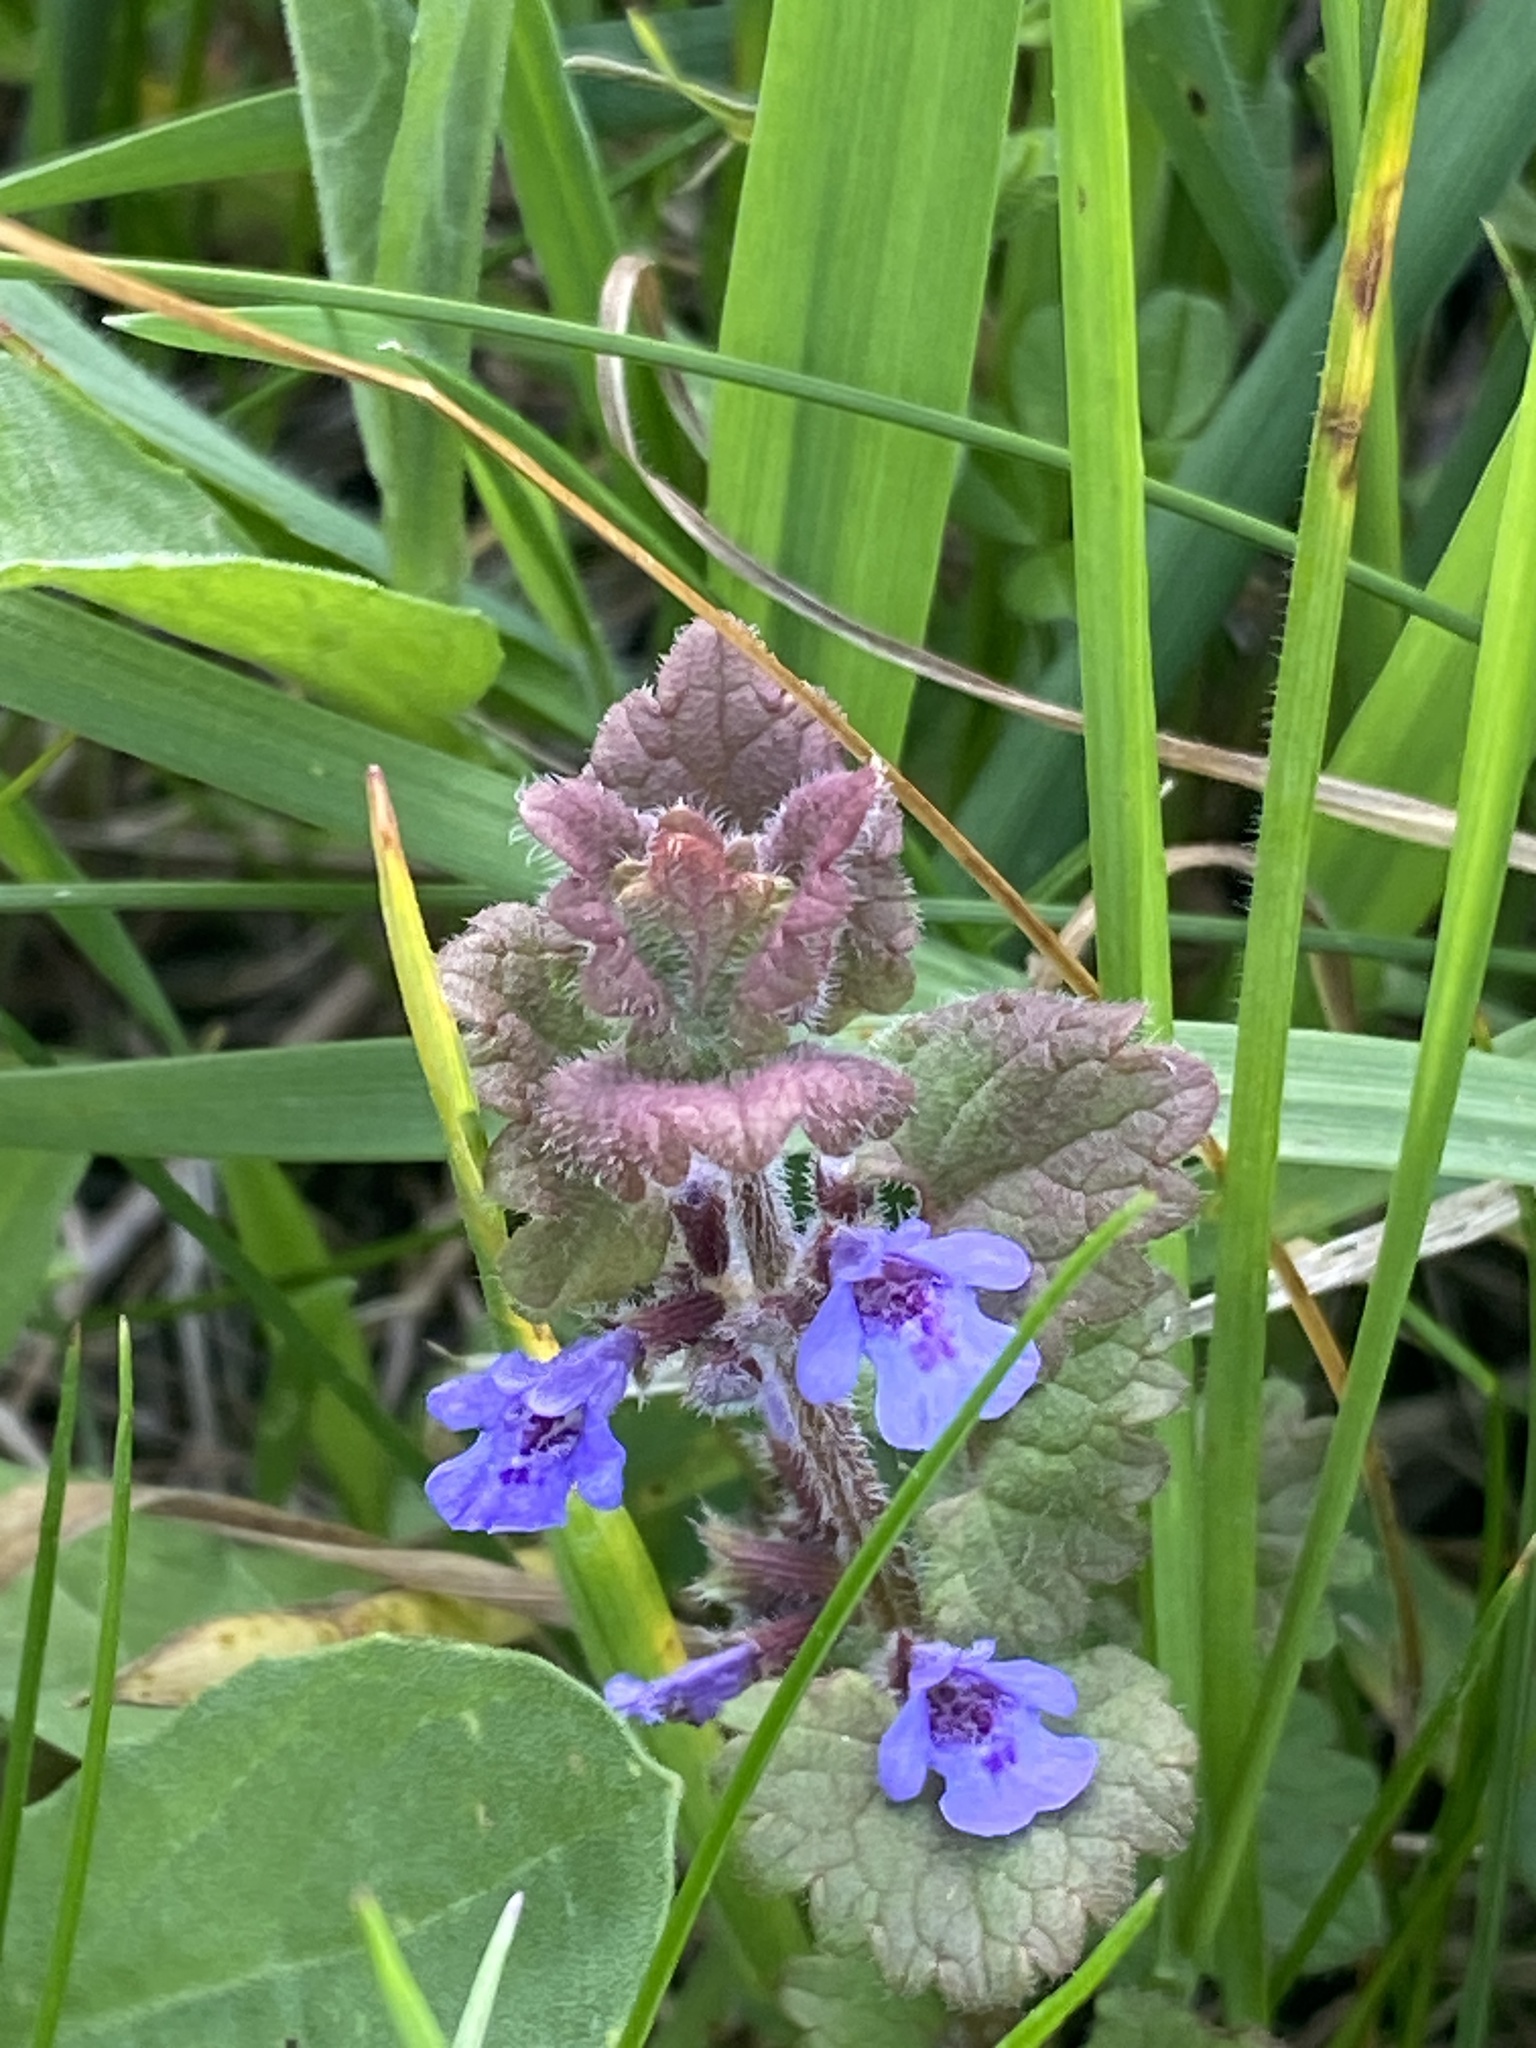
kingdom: Plantae
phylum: Tracheophyta
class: Magnoliopsida
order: Lamiales
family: Lamiaceae
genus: Glechoma
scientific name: Glechoma hederacea
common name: Ground ivy
